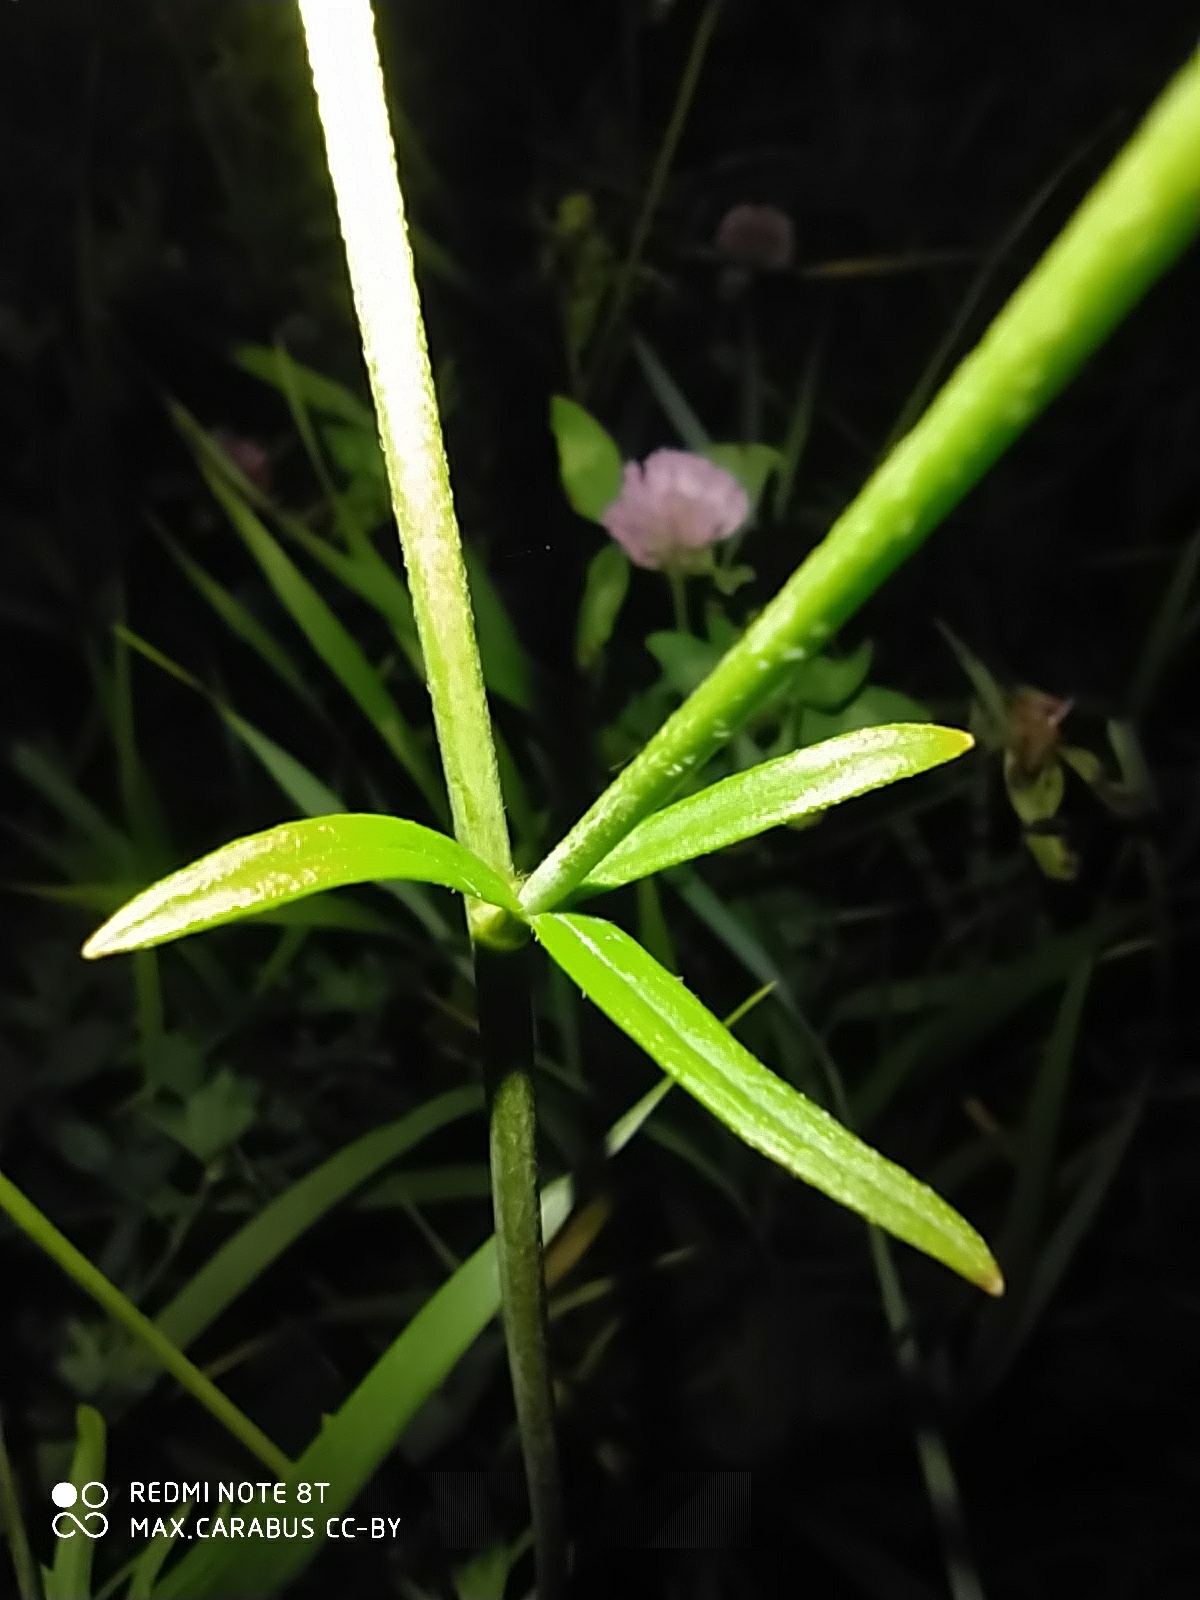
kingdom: Plantae
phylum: Tracheophyta
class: Magnoliopsida
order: Ranunculales
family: Ranunculaceae
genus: Ranunculus
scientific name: Ranunculus acris
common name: Meadow buttercup
